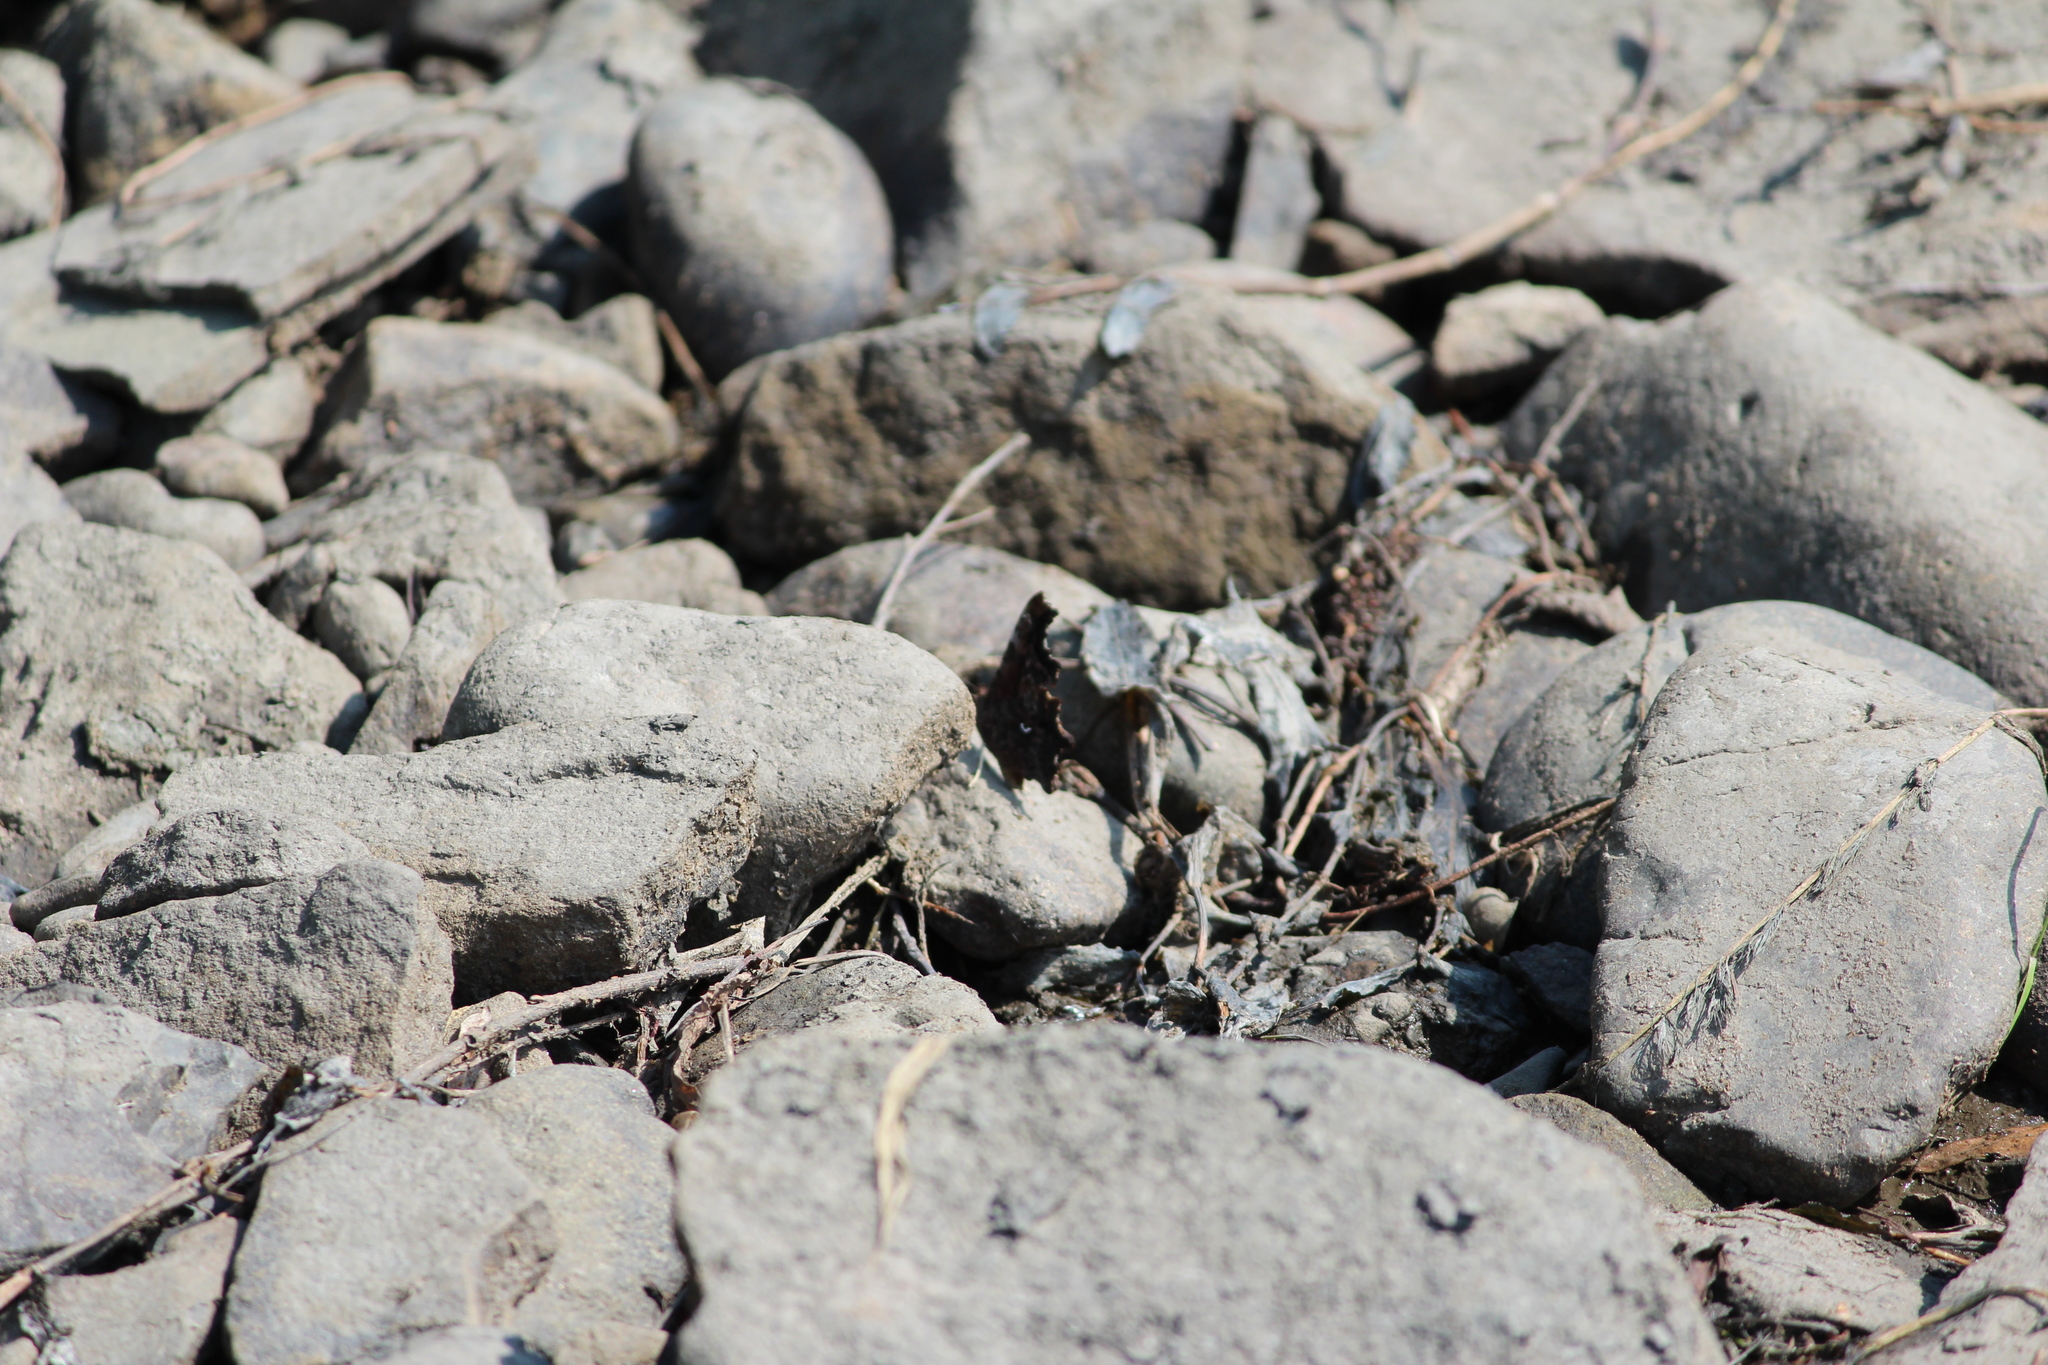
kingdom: Animalia
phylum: Arthropoda
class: Insecta
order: Lepidoptera
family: Nymphalidae
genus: Polygonia
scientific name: Polygonia c-album
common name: Comma
